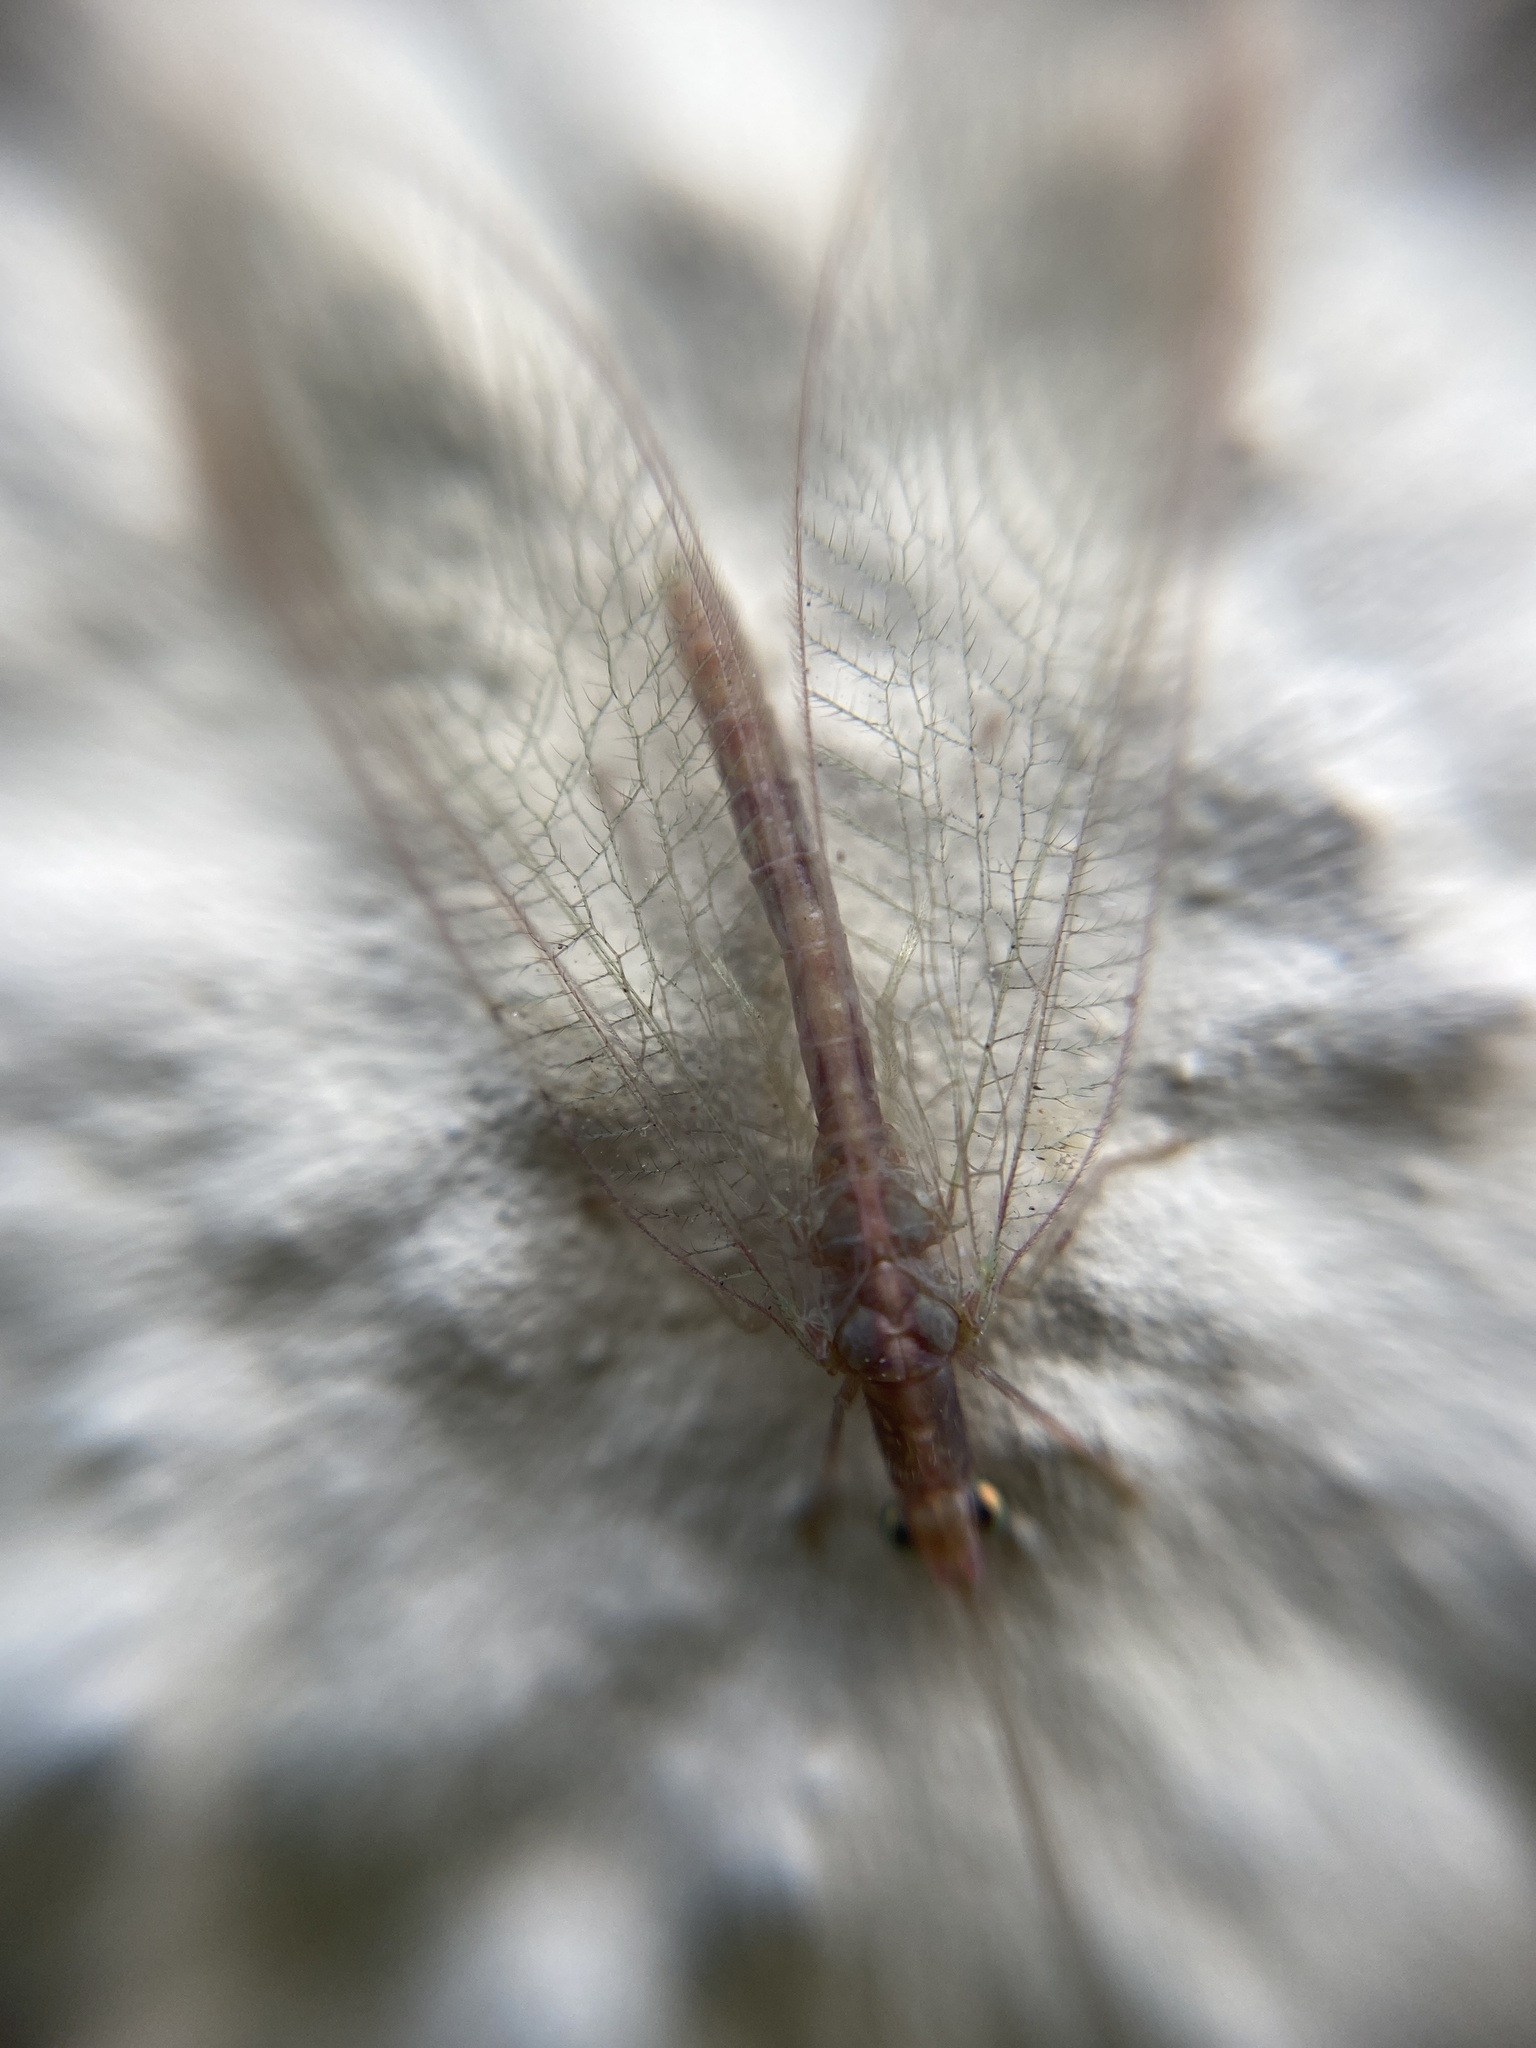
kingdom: Animalia
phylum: Arthropoda
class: Insecta
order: Neuroptera
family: Chrysopidae
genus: Chrysoperla
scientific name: Chrysoperla
